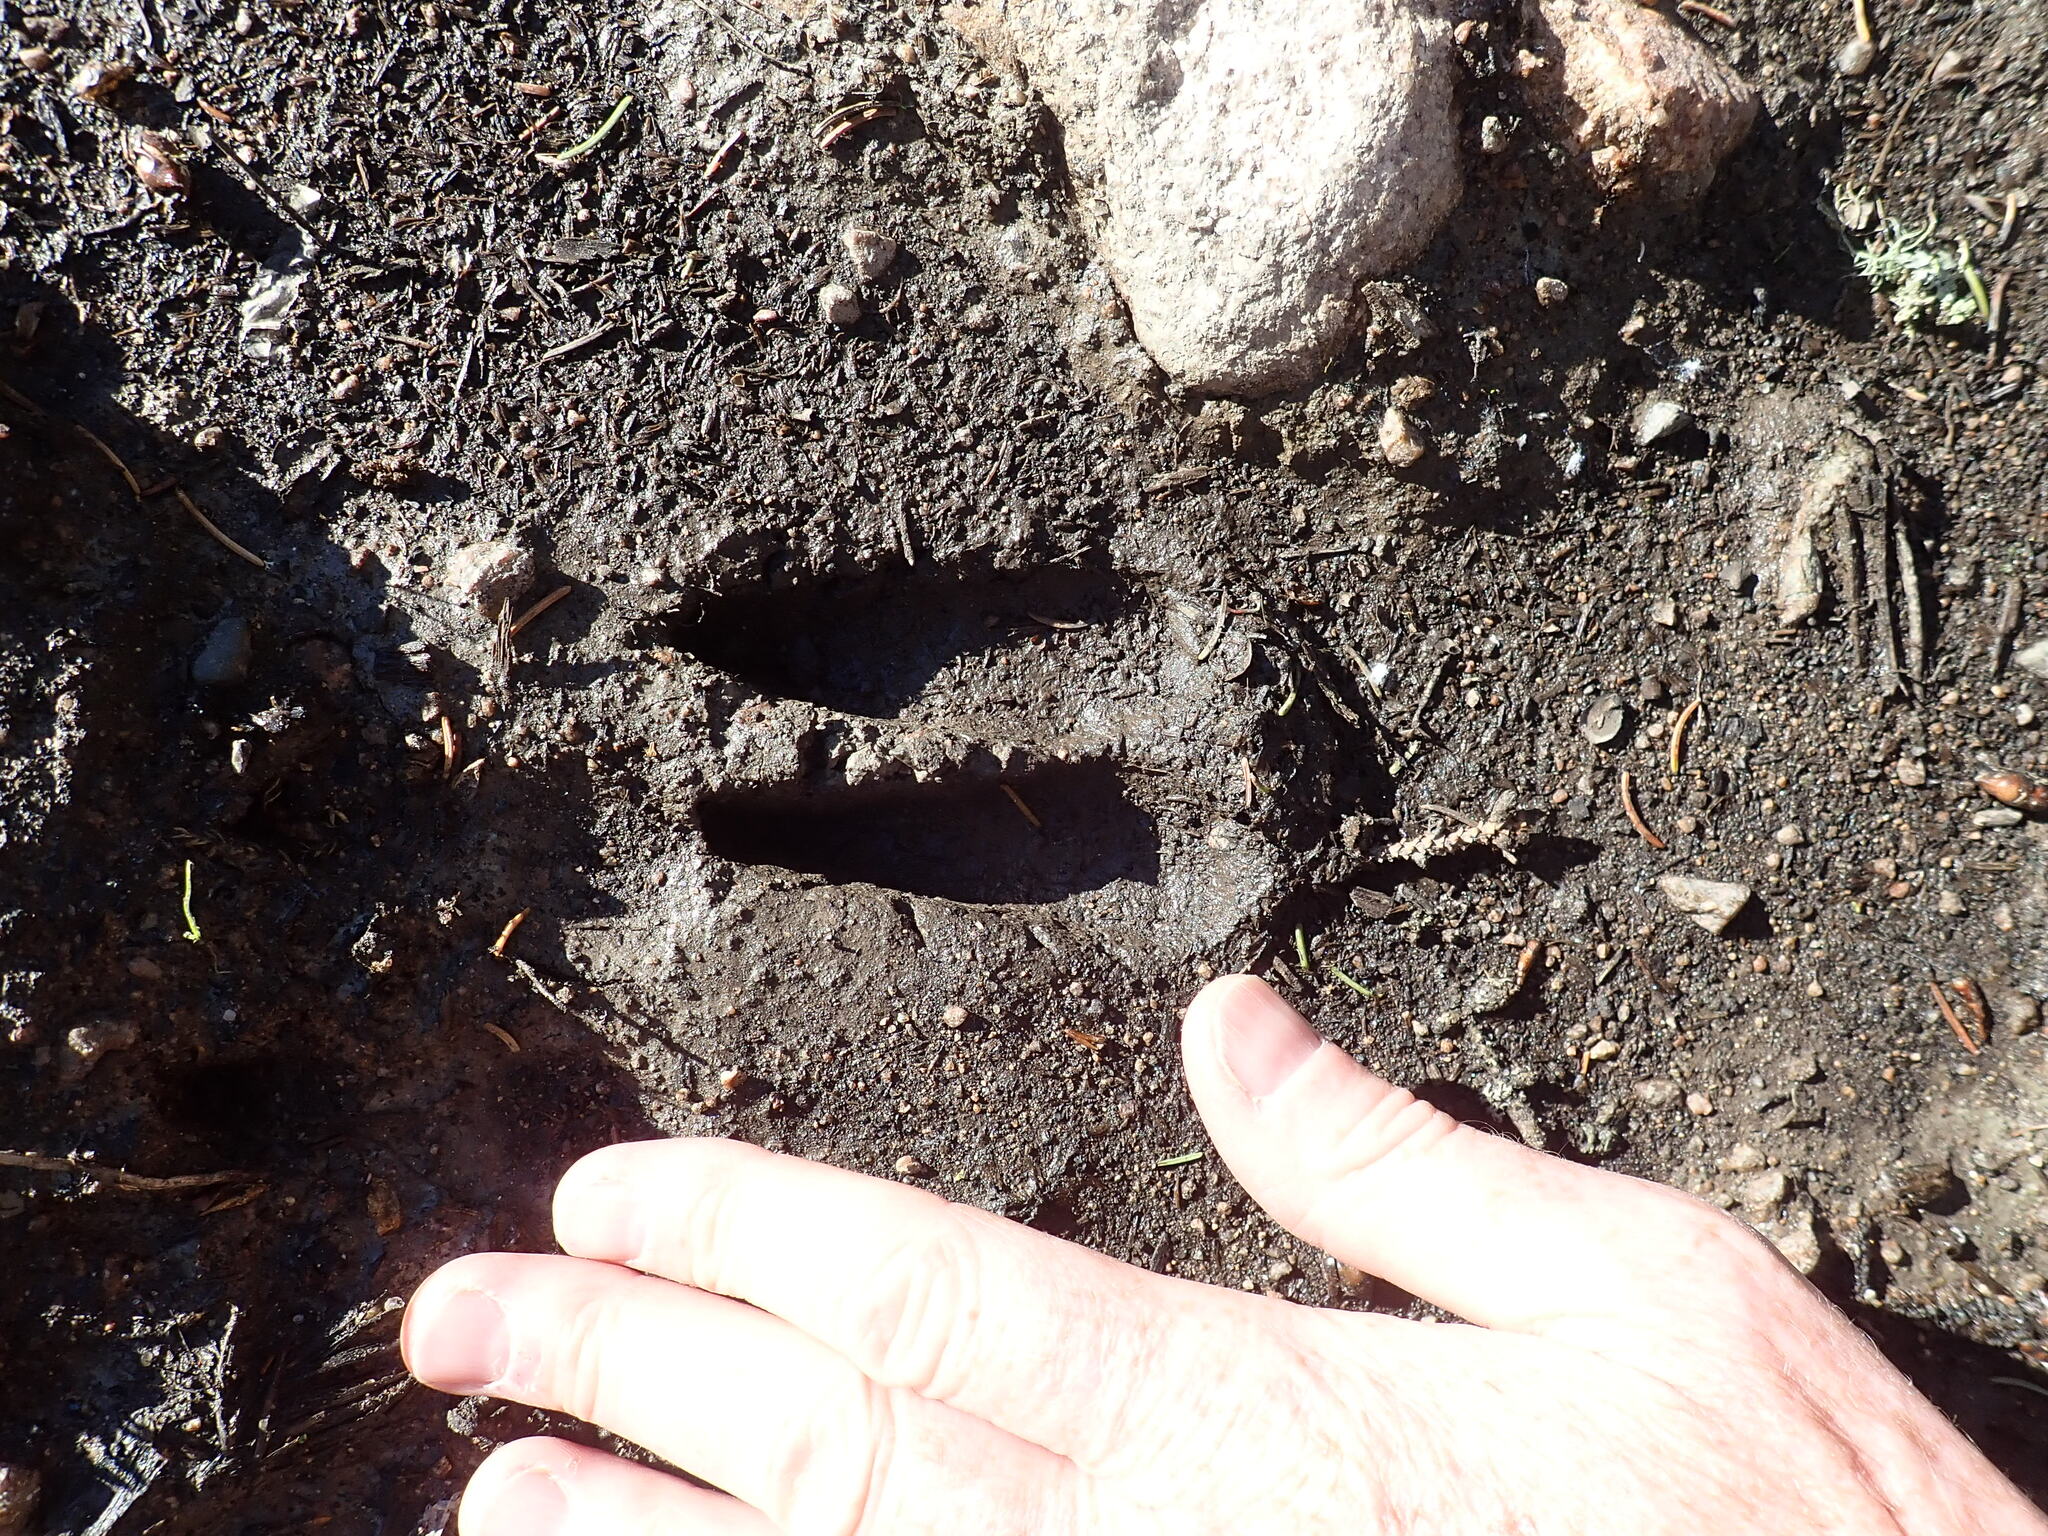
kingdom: Animalia
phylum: Chordata
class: Mammalia
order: Artiodactyla
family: Cervidae
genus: Alces
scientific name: Alces alces
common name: Moose
